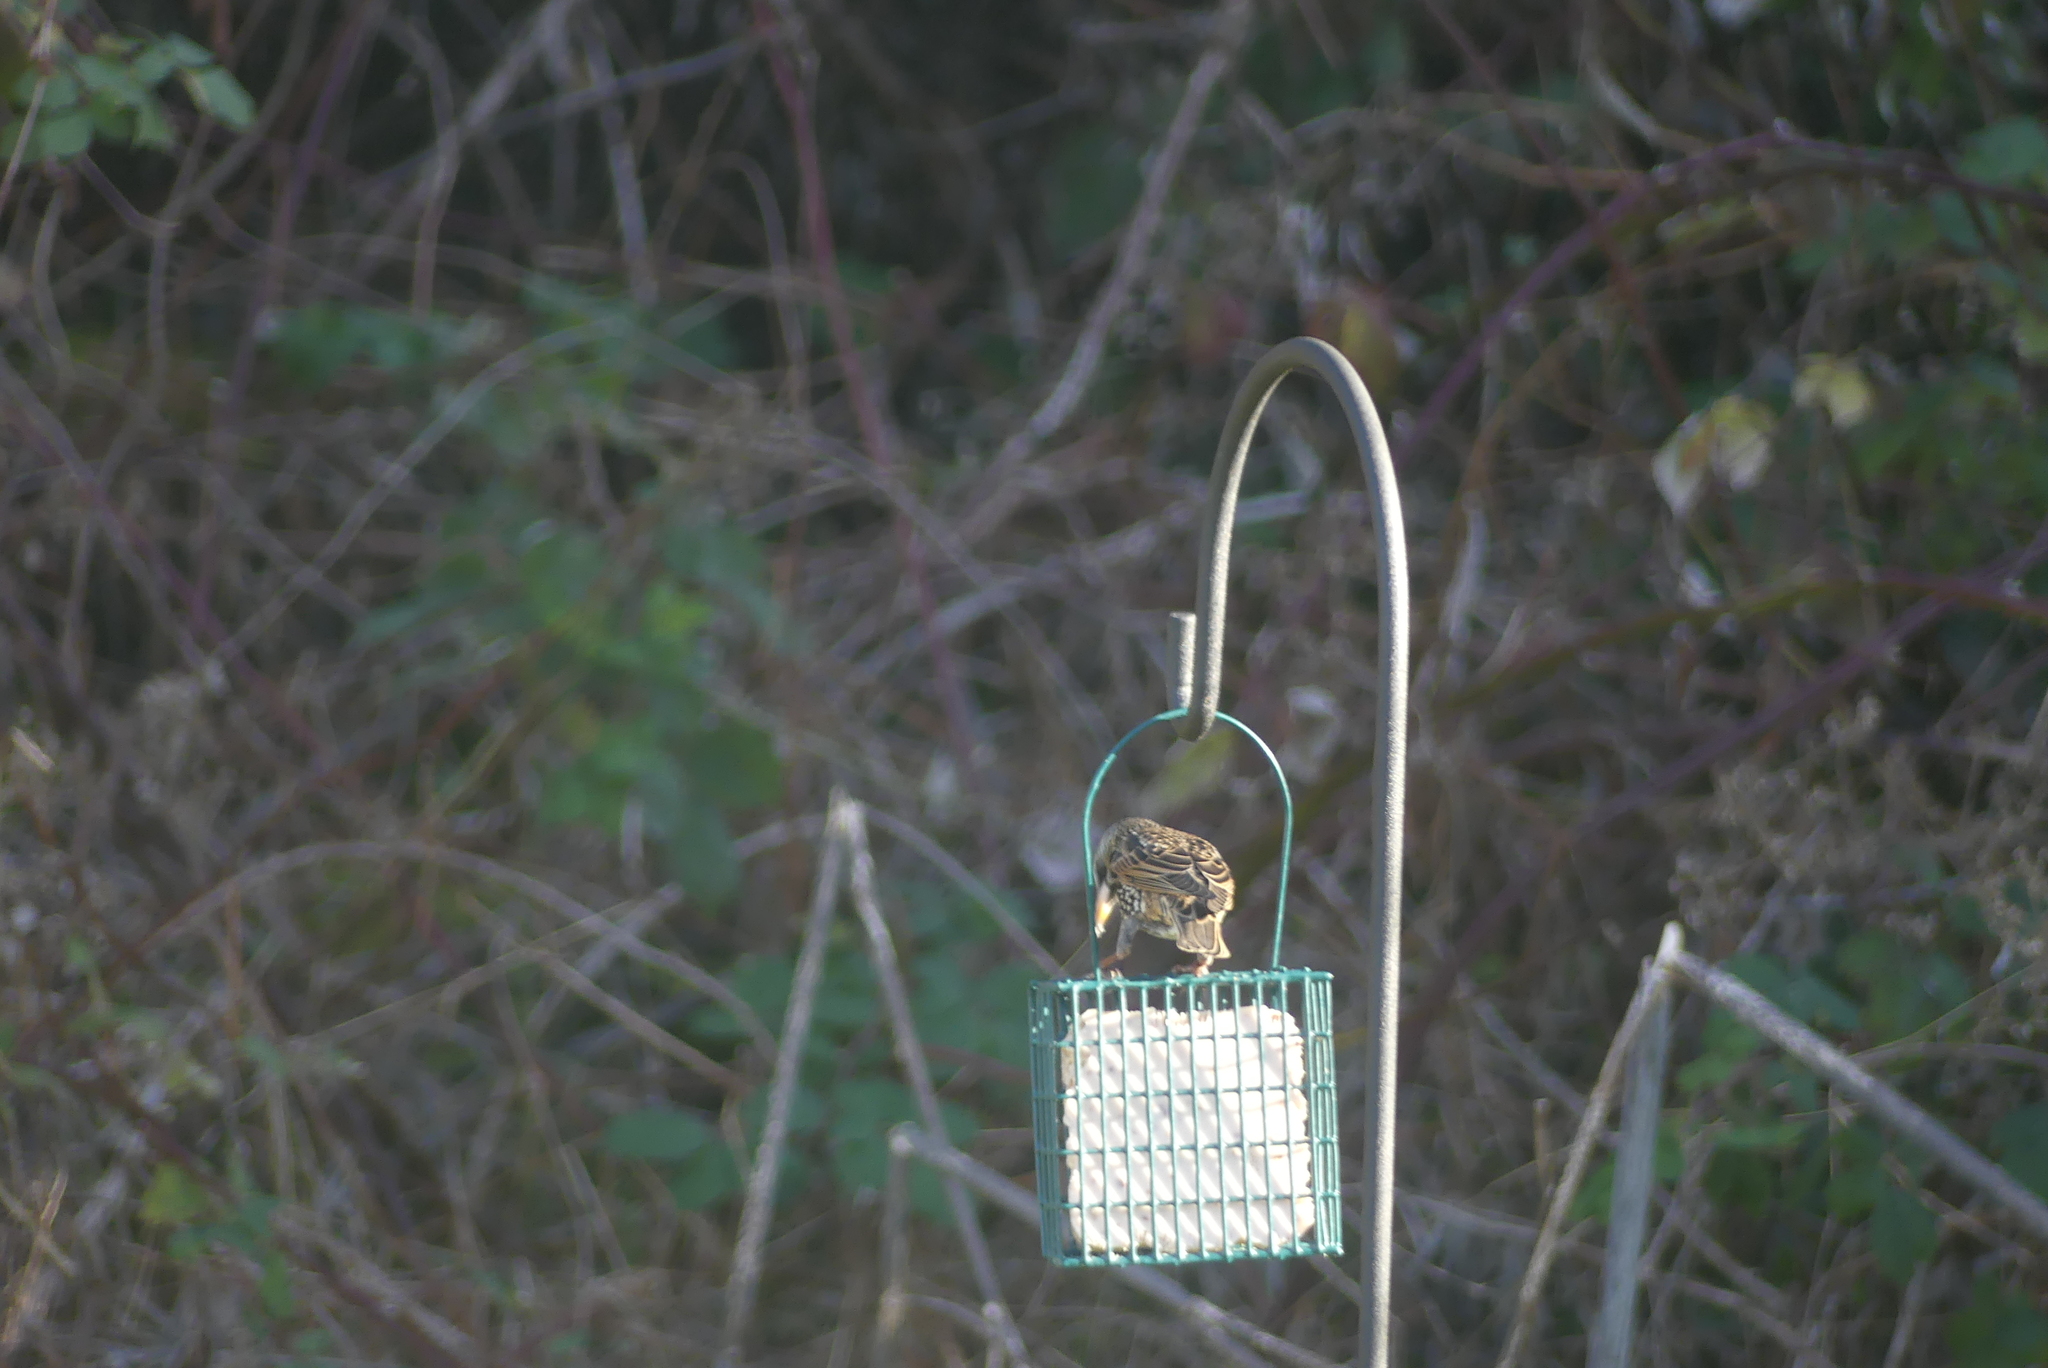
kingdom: Animalia
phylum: Chordata
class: Aves
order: Passeriformes
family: Sturnidae
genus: Sturnus
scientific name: Sturnus vulgaris
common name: Common starling
